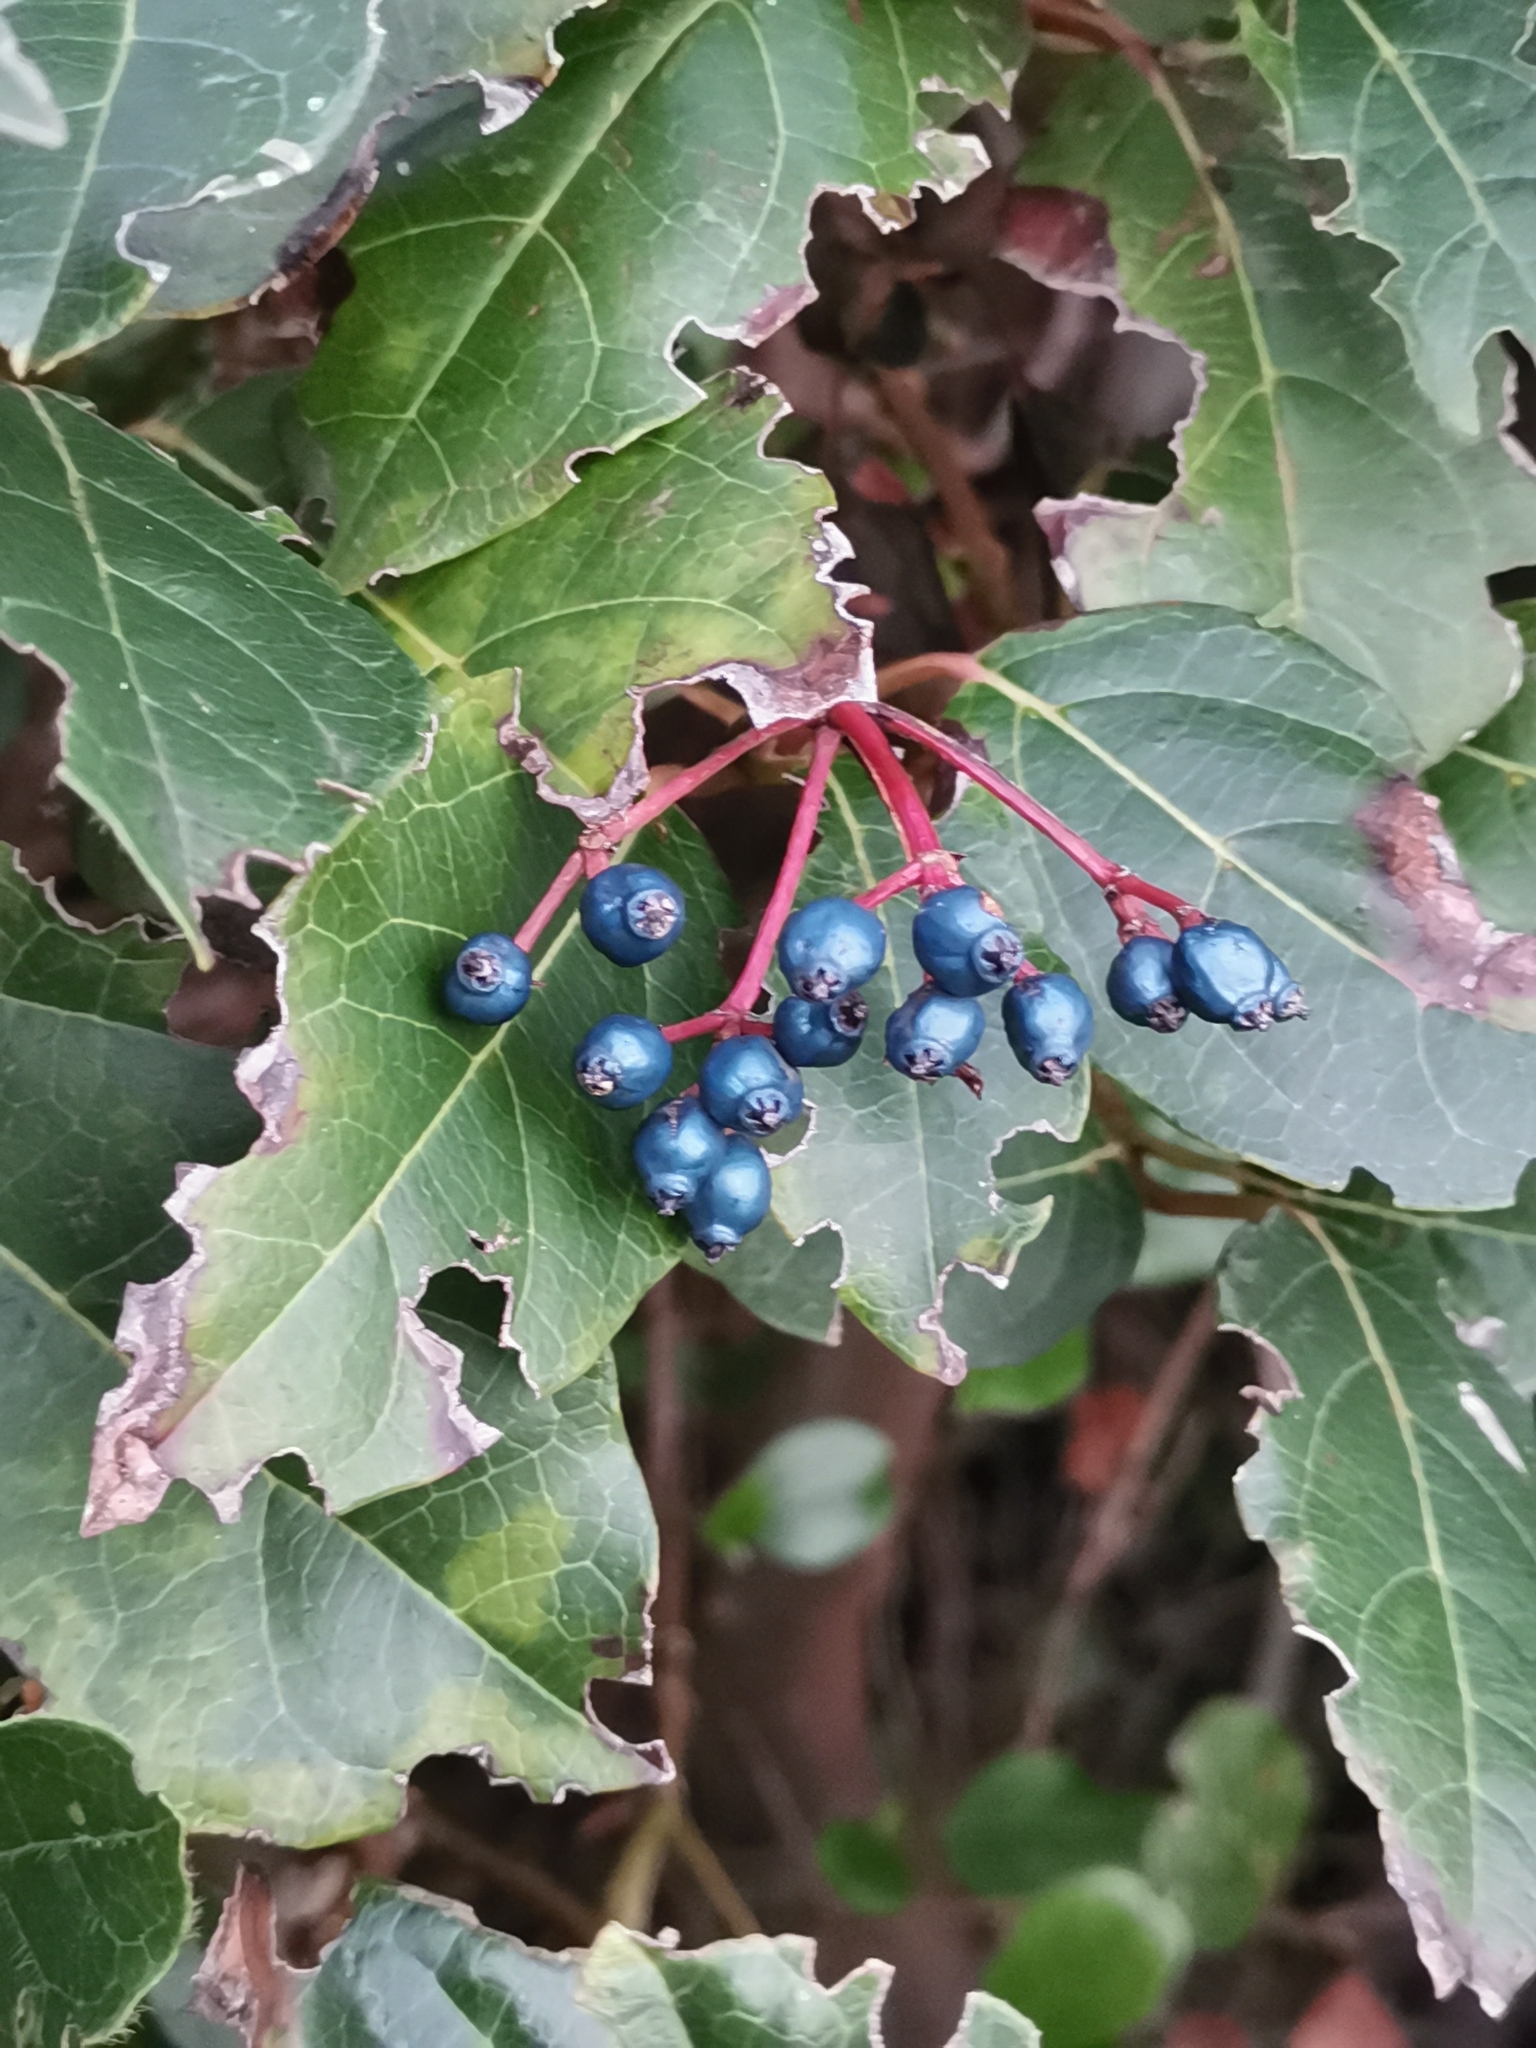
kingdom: Plantae
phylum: Tracheophyta
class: Magnoliopsida
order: Dipsacales
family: Viburnaceae
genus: Viburnum
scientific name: Viburnum tinus
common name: Laurustinus
